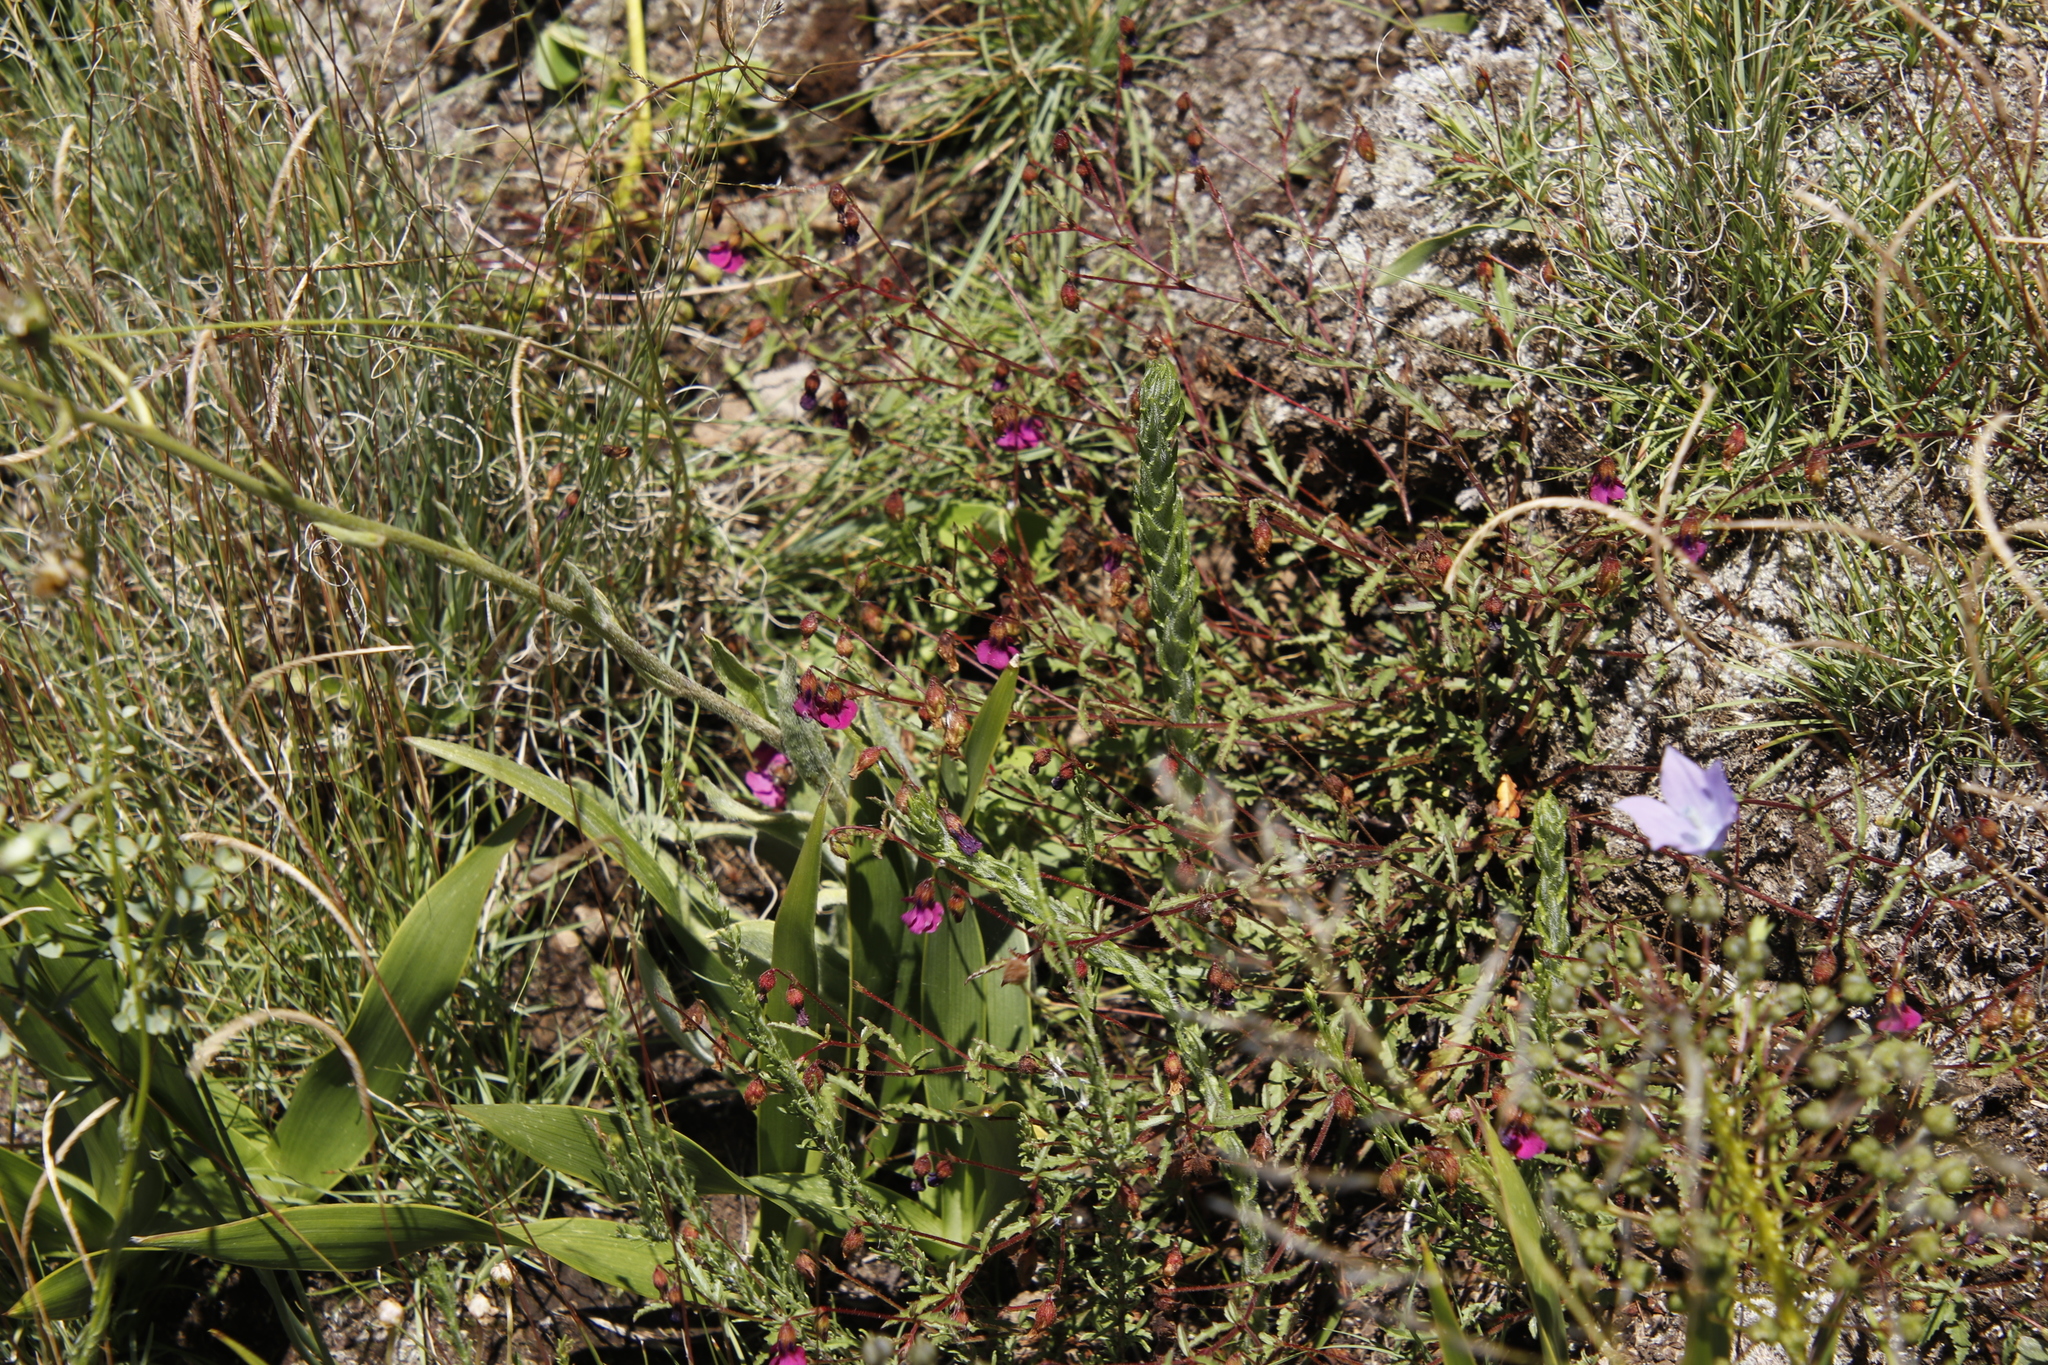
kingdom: Plantae
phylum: Tracheophyta
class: Magnoliopsida
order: Malvales
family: Malvaceae
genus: Hermannia
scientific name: Hermannia coccocarpa
